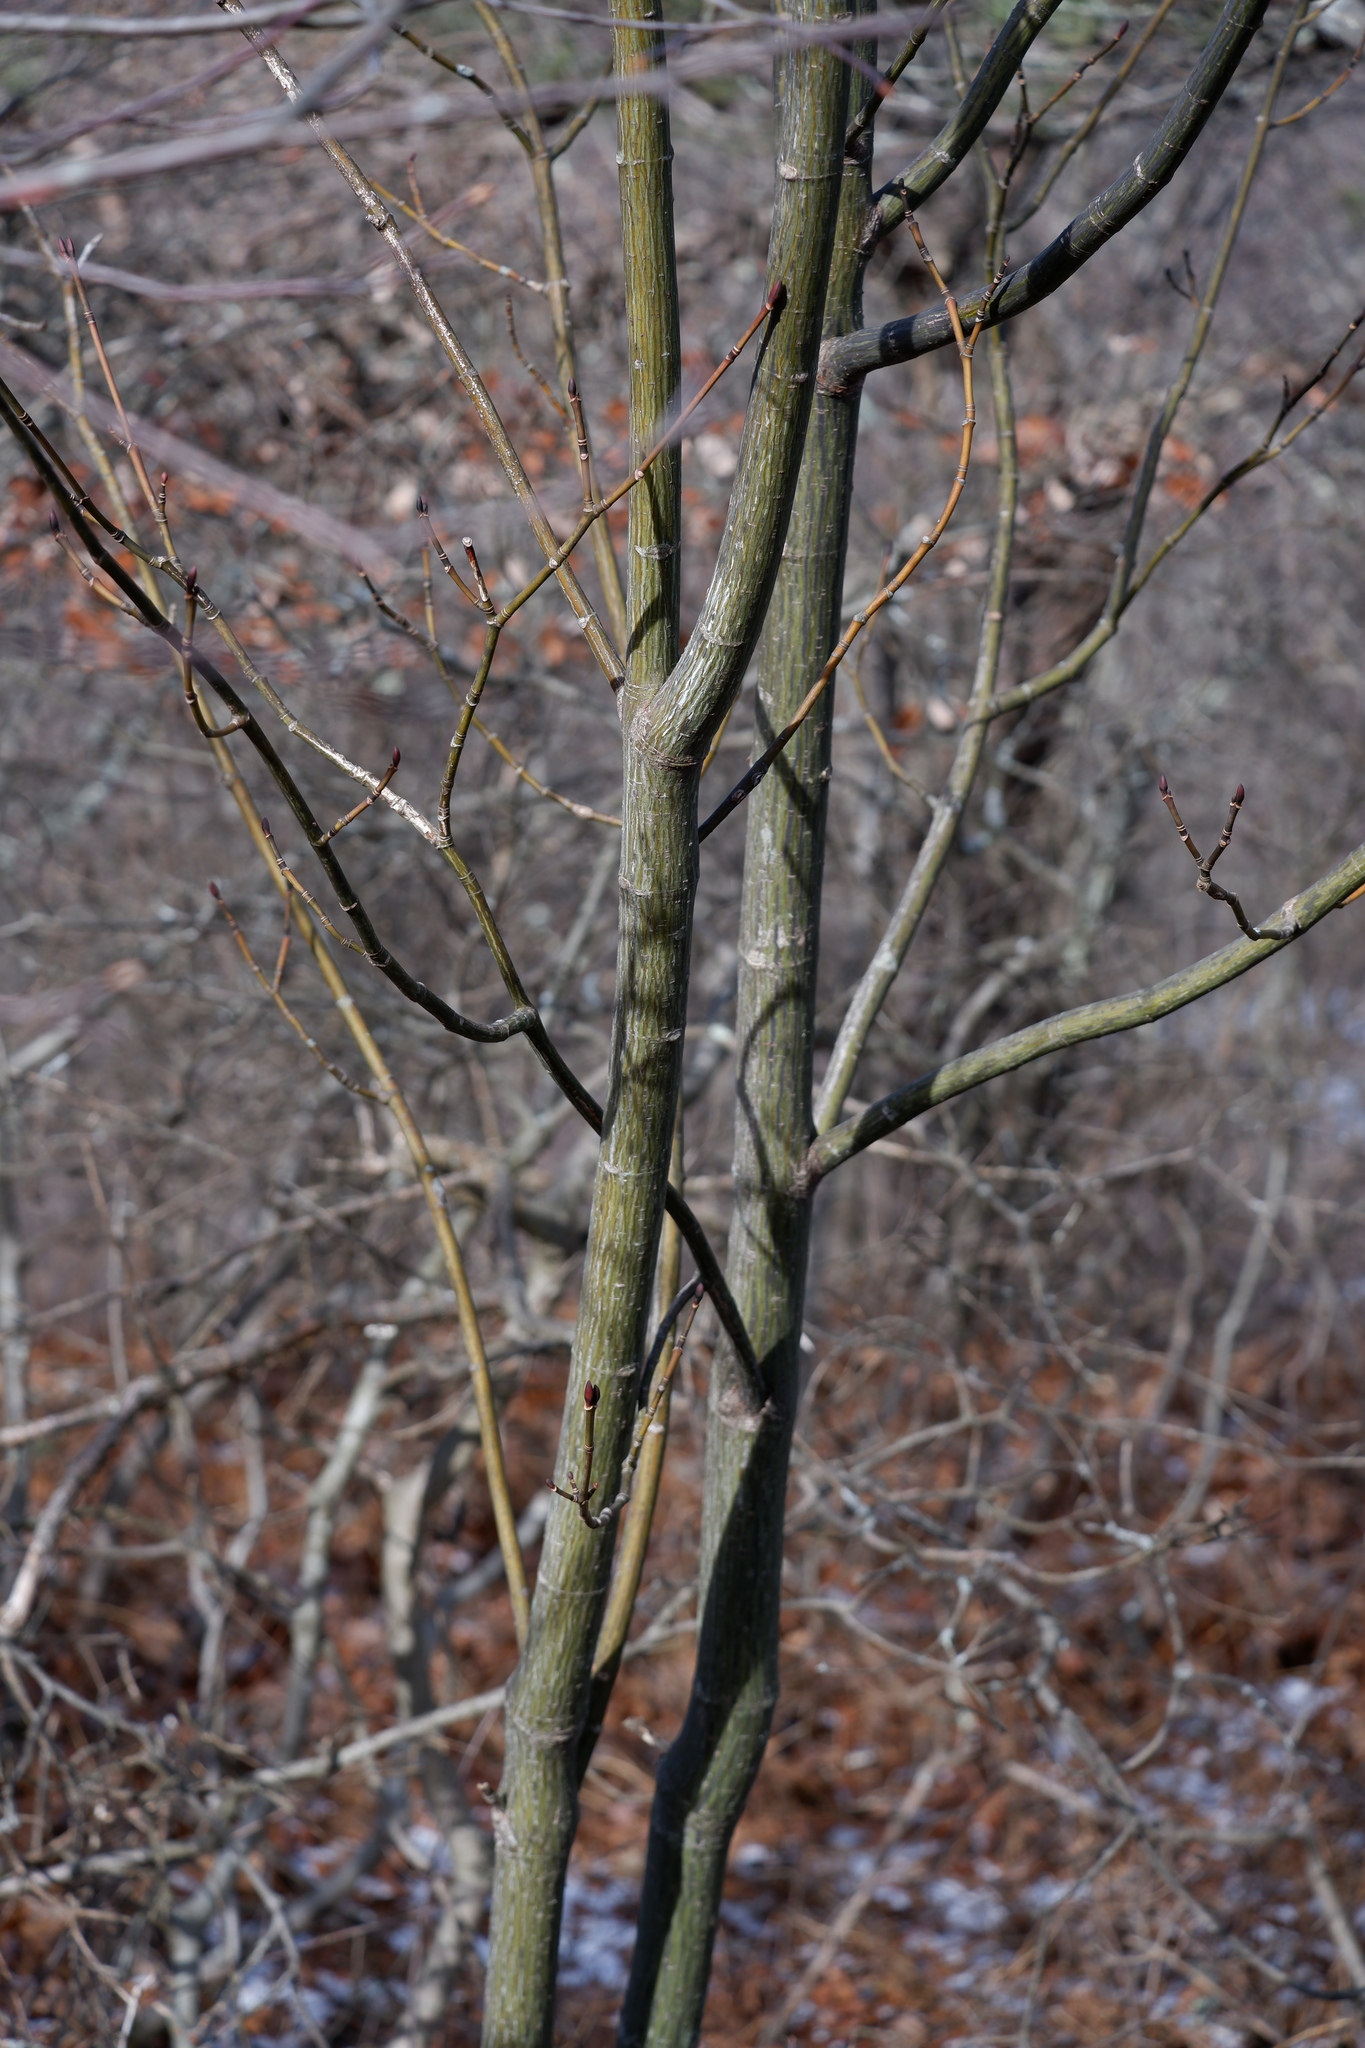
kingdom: Plantae
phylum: Tracheophyta
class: Magnoliopsida
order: Sapindales
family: Sapindaceae
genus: Acer
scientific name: Acer pensylvanicum
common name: Moosewood
